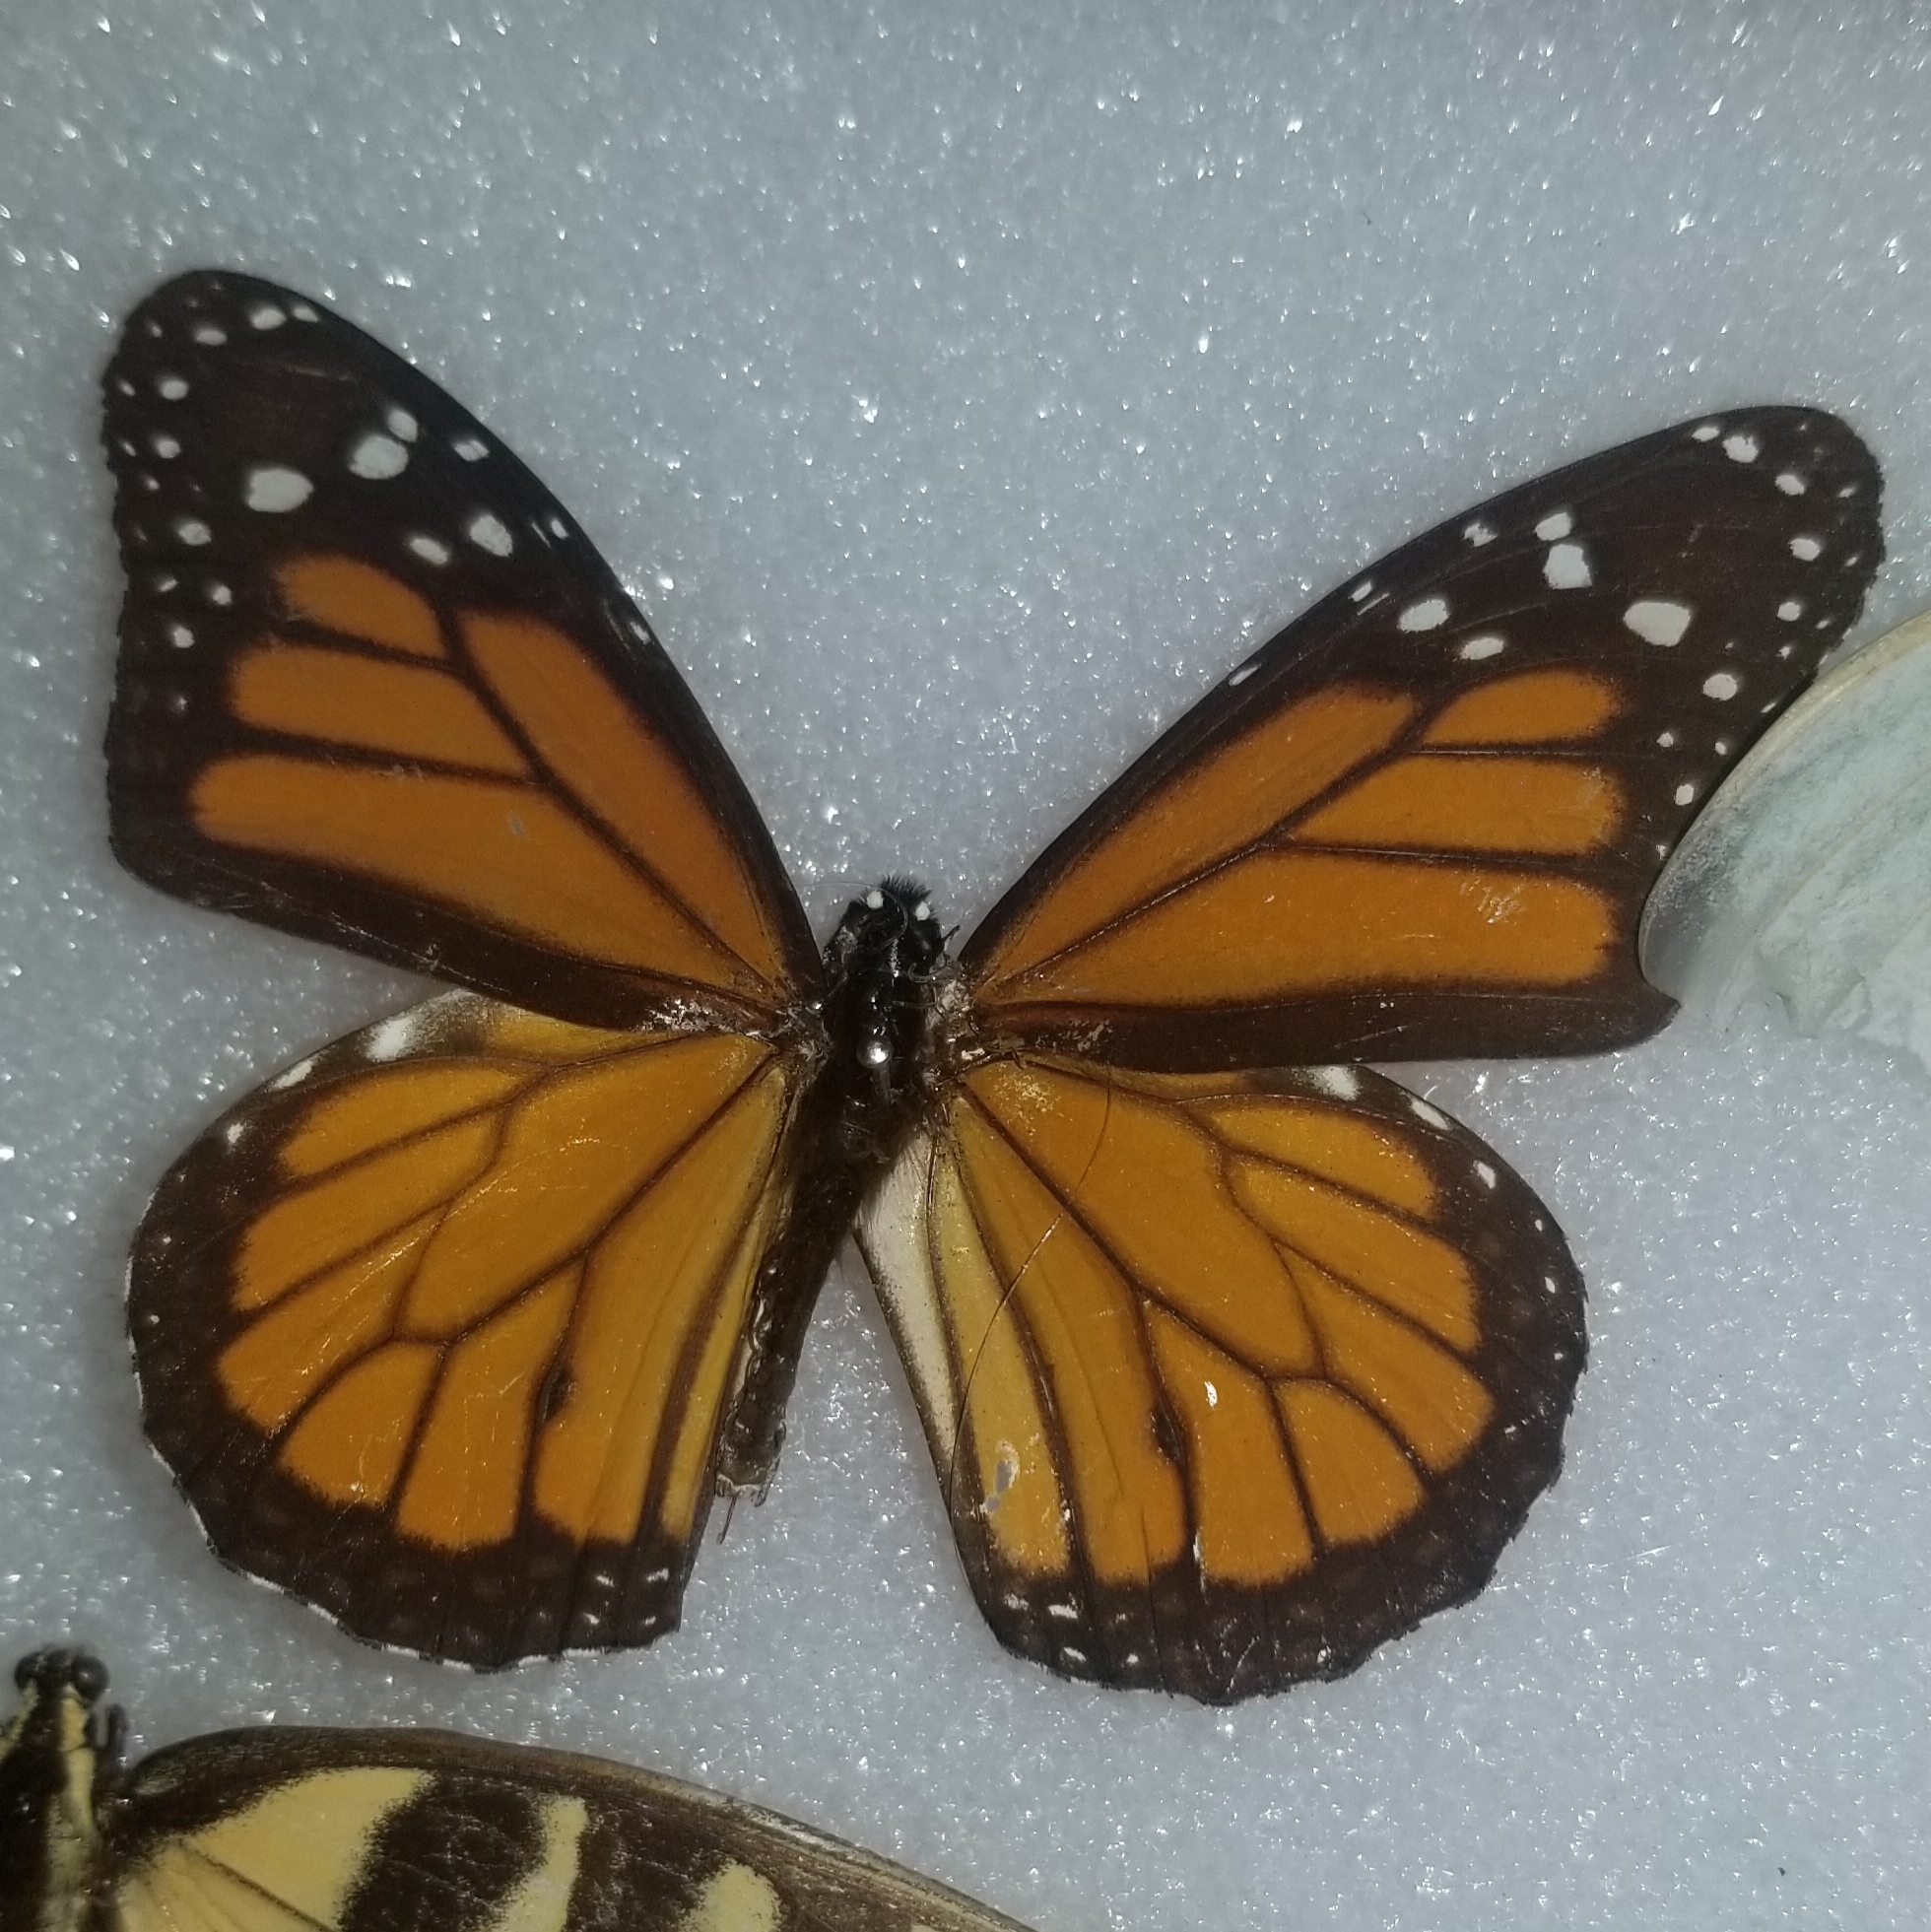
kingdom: Animalia
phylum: Arthropoda
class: Insecta
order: Lepidoptera
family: Nymphalidae
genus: Danaus
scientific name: Danaus plexippus
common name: Monarch
